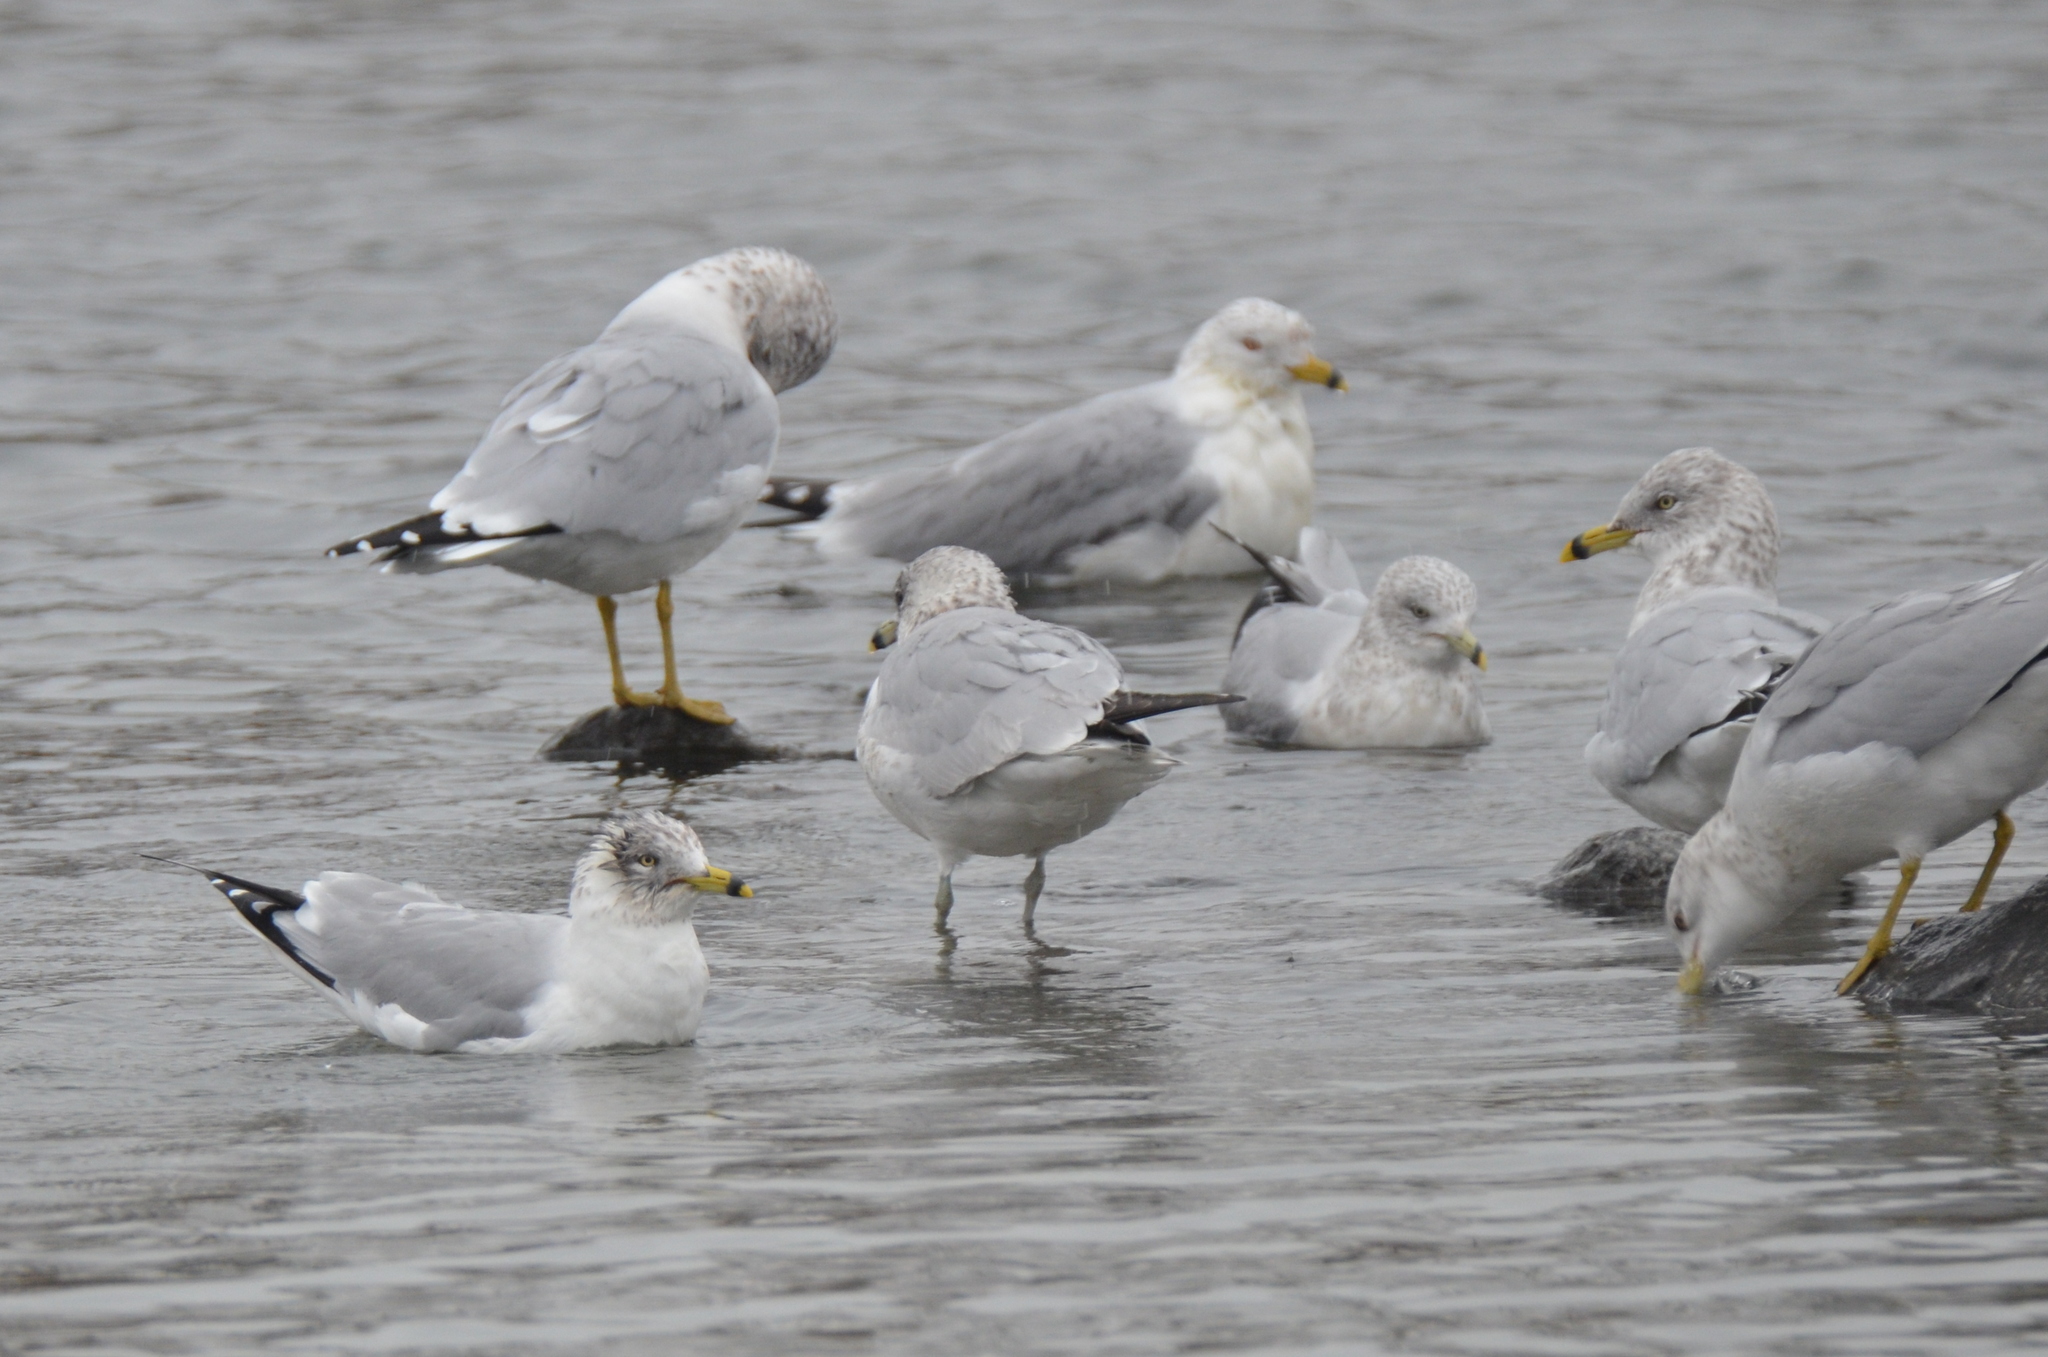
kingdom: Animalia
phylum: Chordata
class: Aves
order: Charadriiformes
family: Laridae
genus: Larus
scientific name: Larus delawarensis
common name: Ring-billed gull
